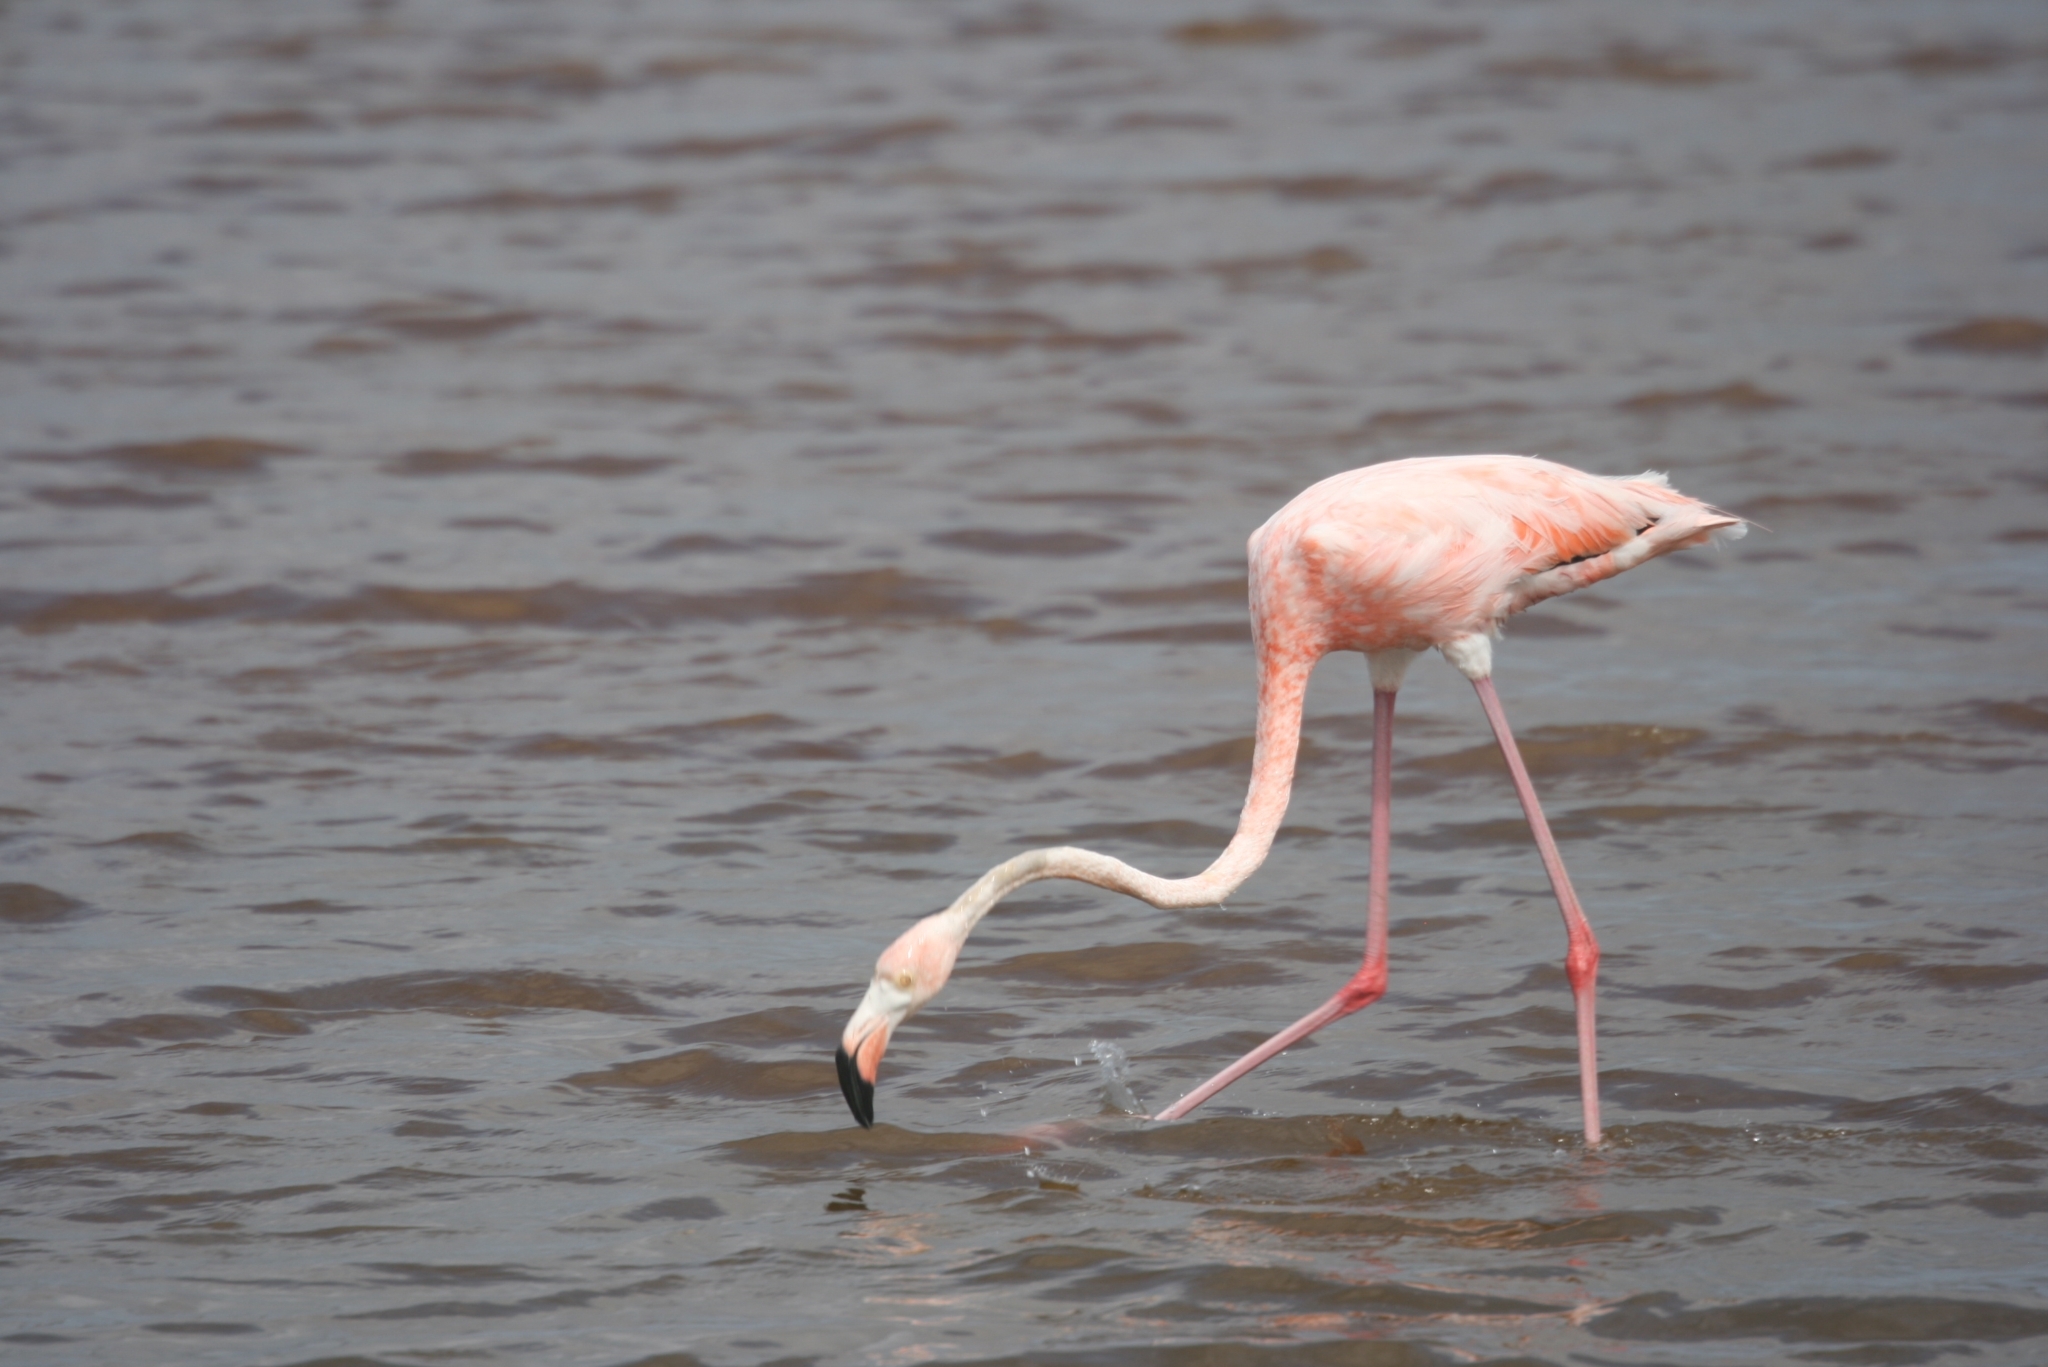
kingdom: Animalia
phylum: Chordata
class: Aves
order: Phoenicopteriformes
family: Phoenicopteridae
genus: Phoenicopterus
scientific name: Phoenicopterus ruber
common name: American flamingo
